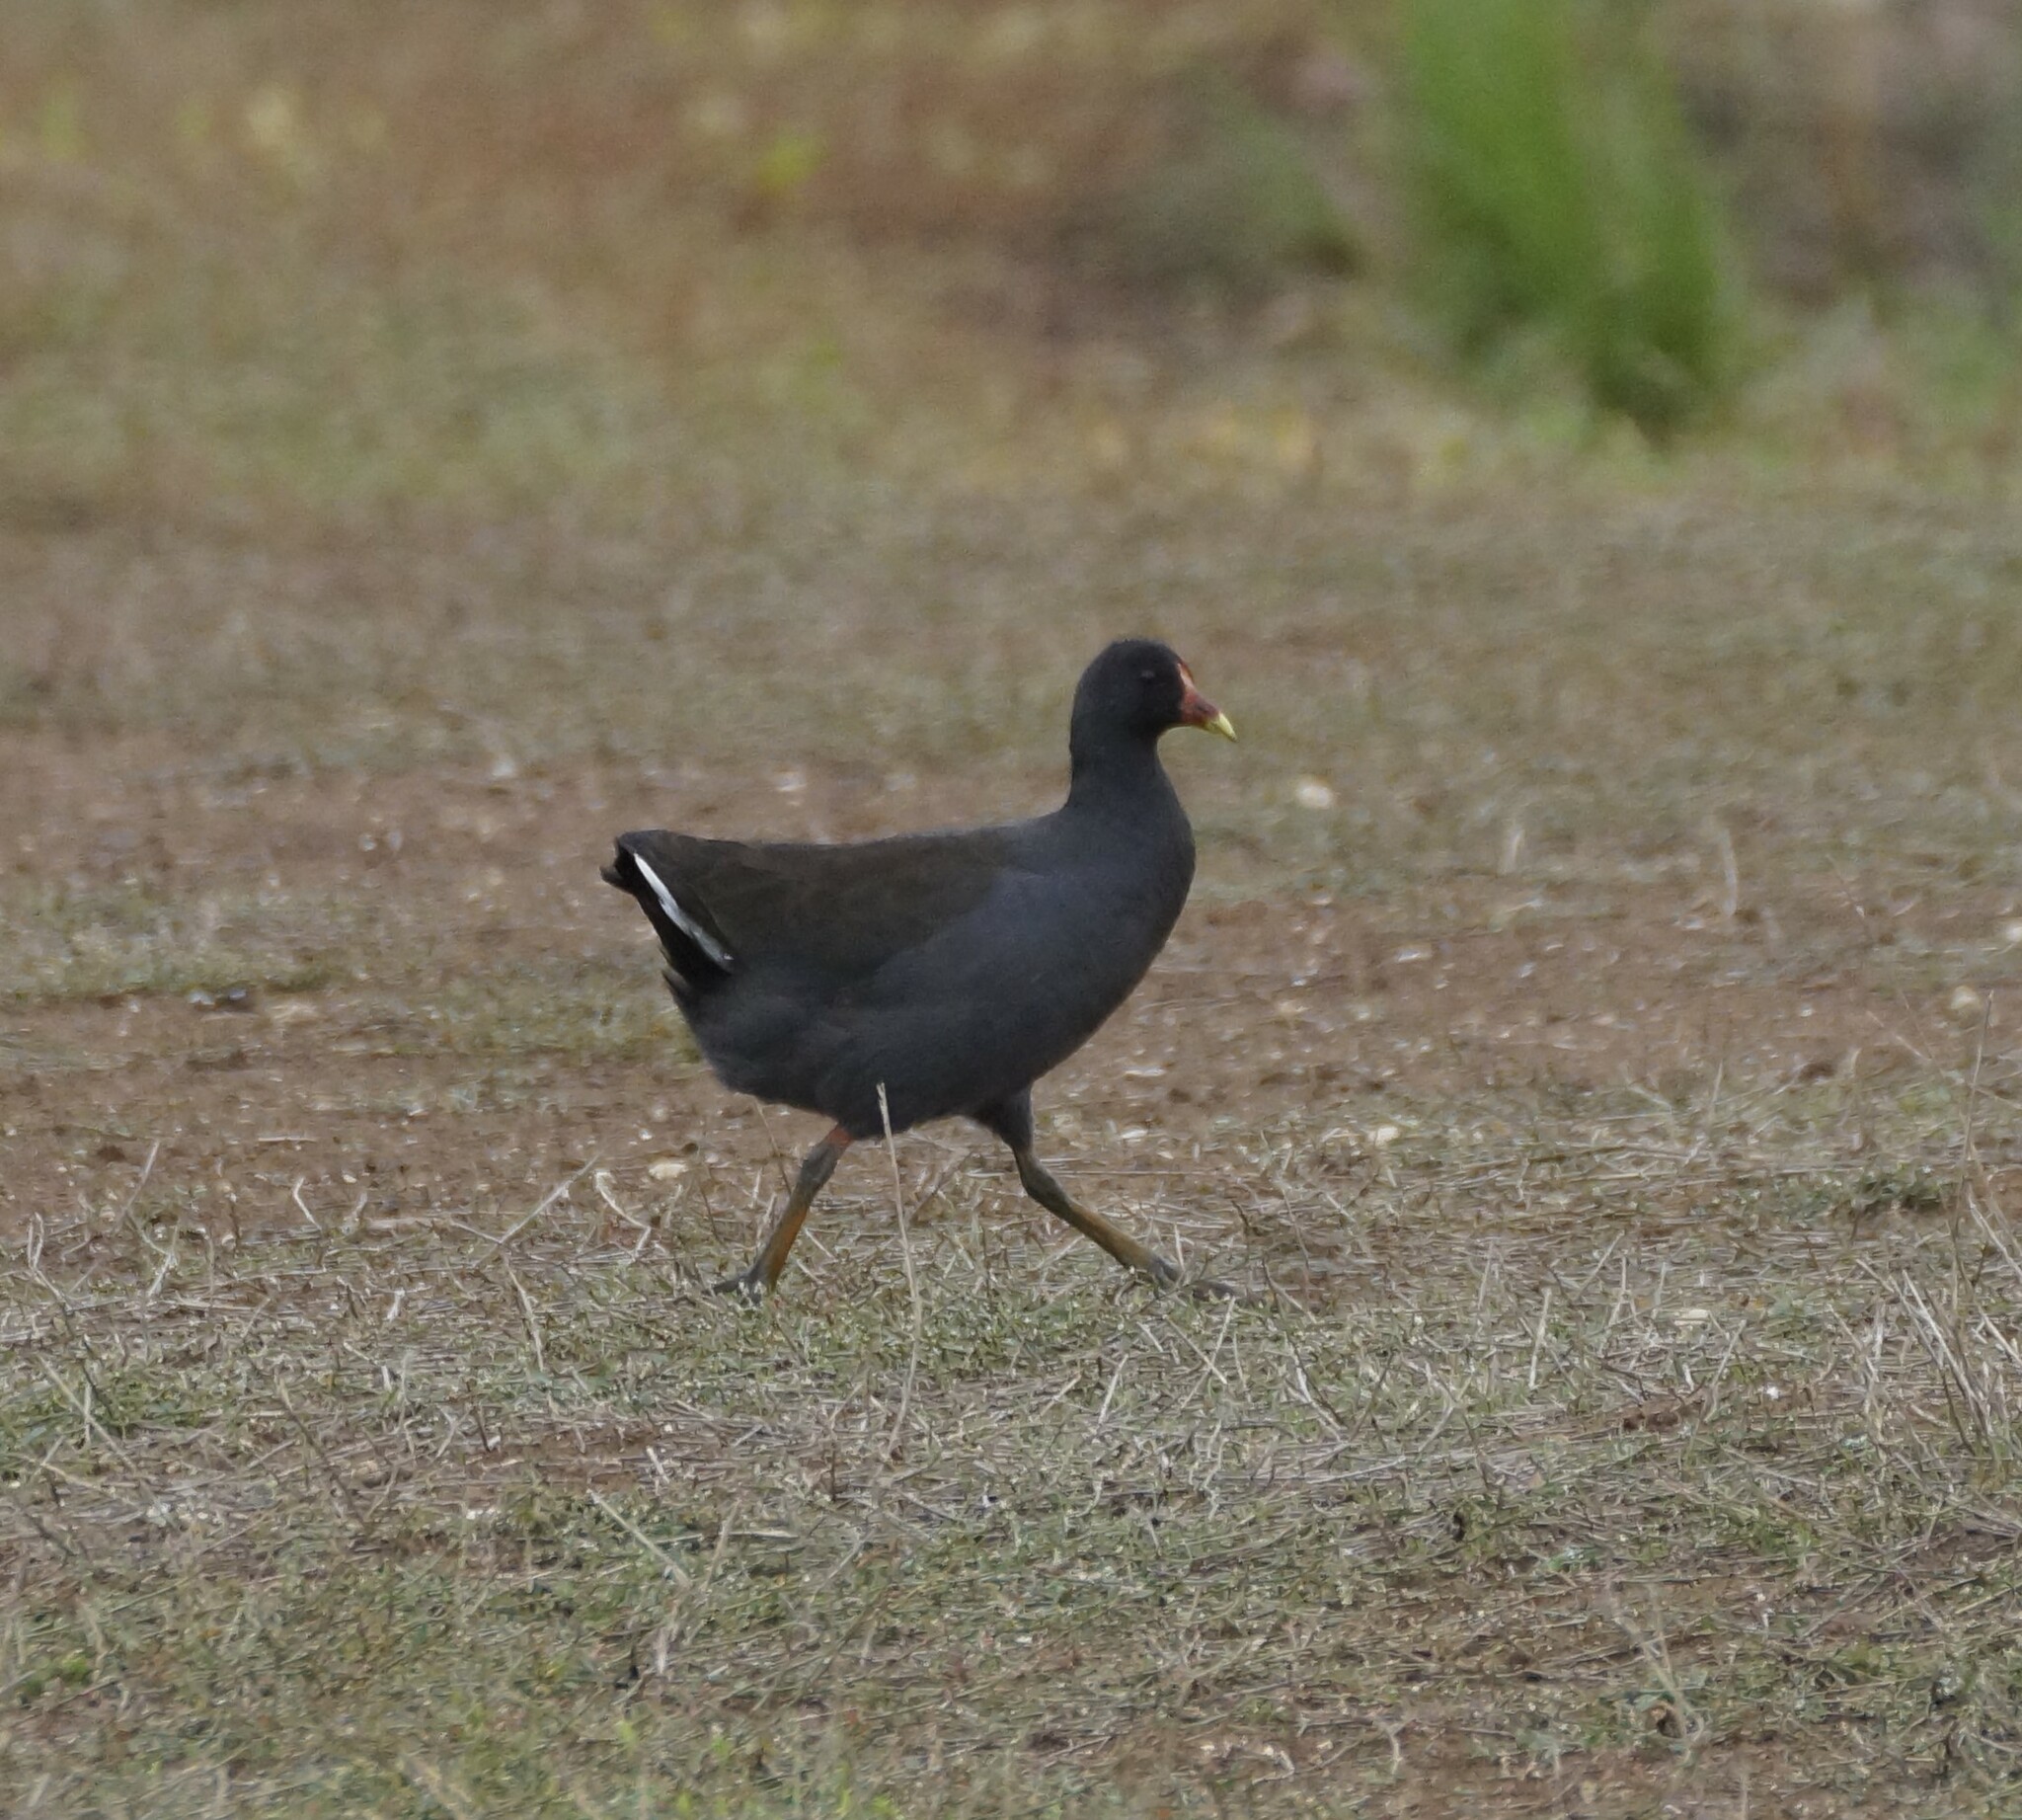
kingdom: Animalia
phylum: Chordata
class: Aves
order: Gruiformes
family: Rallidae
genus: Gallinula
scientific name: Gallinula tenebrosa
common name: Dusky moorhen
